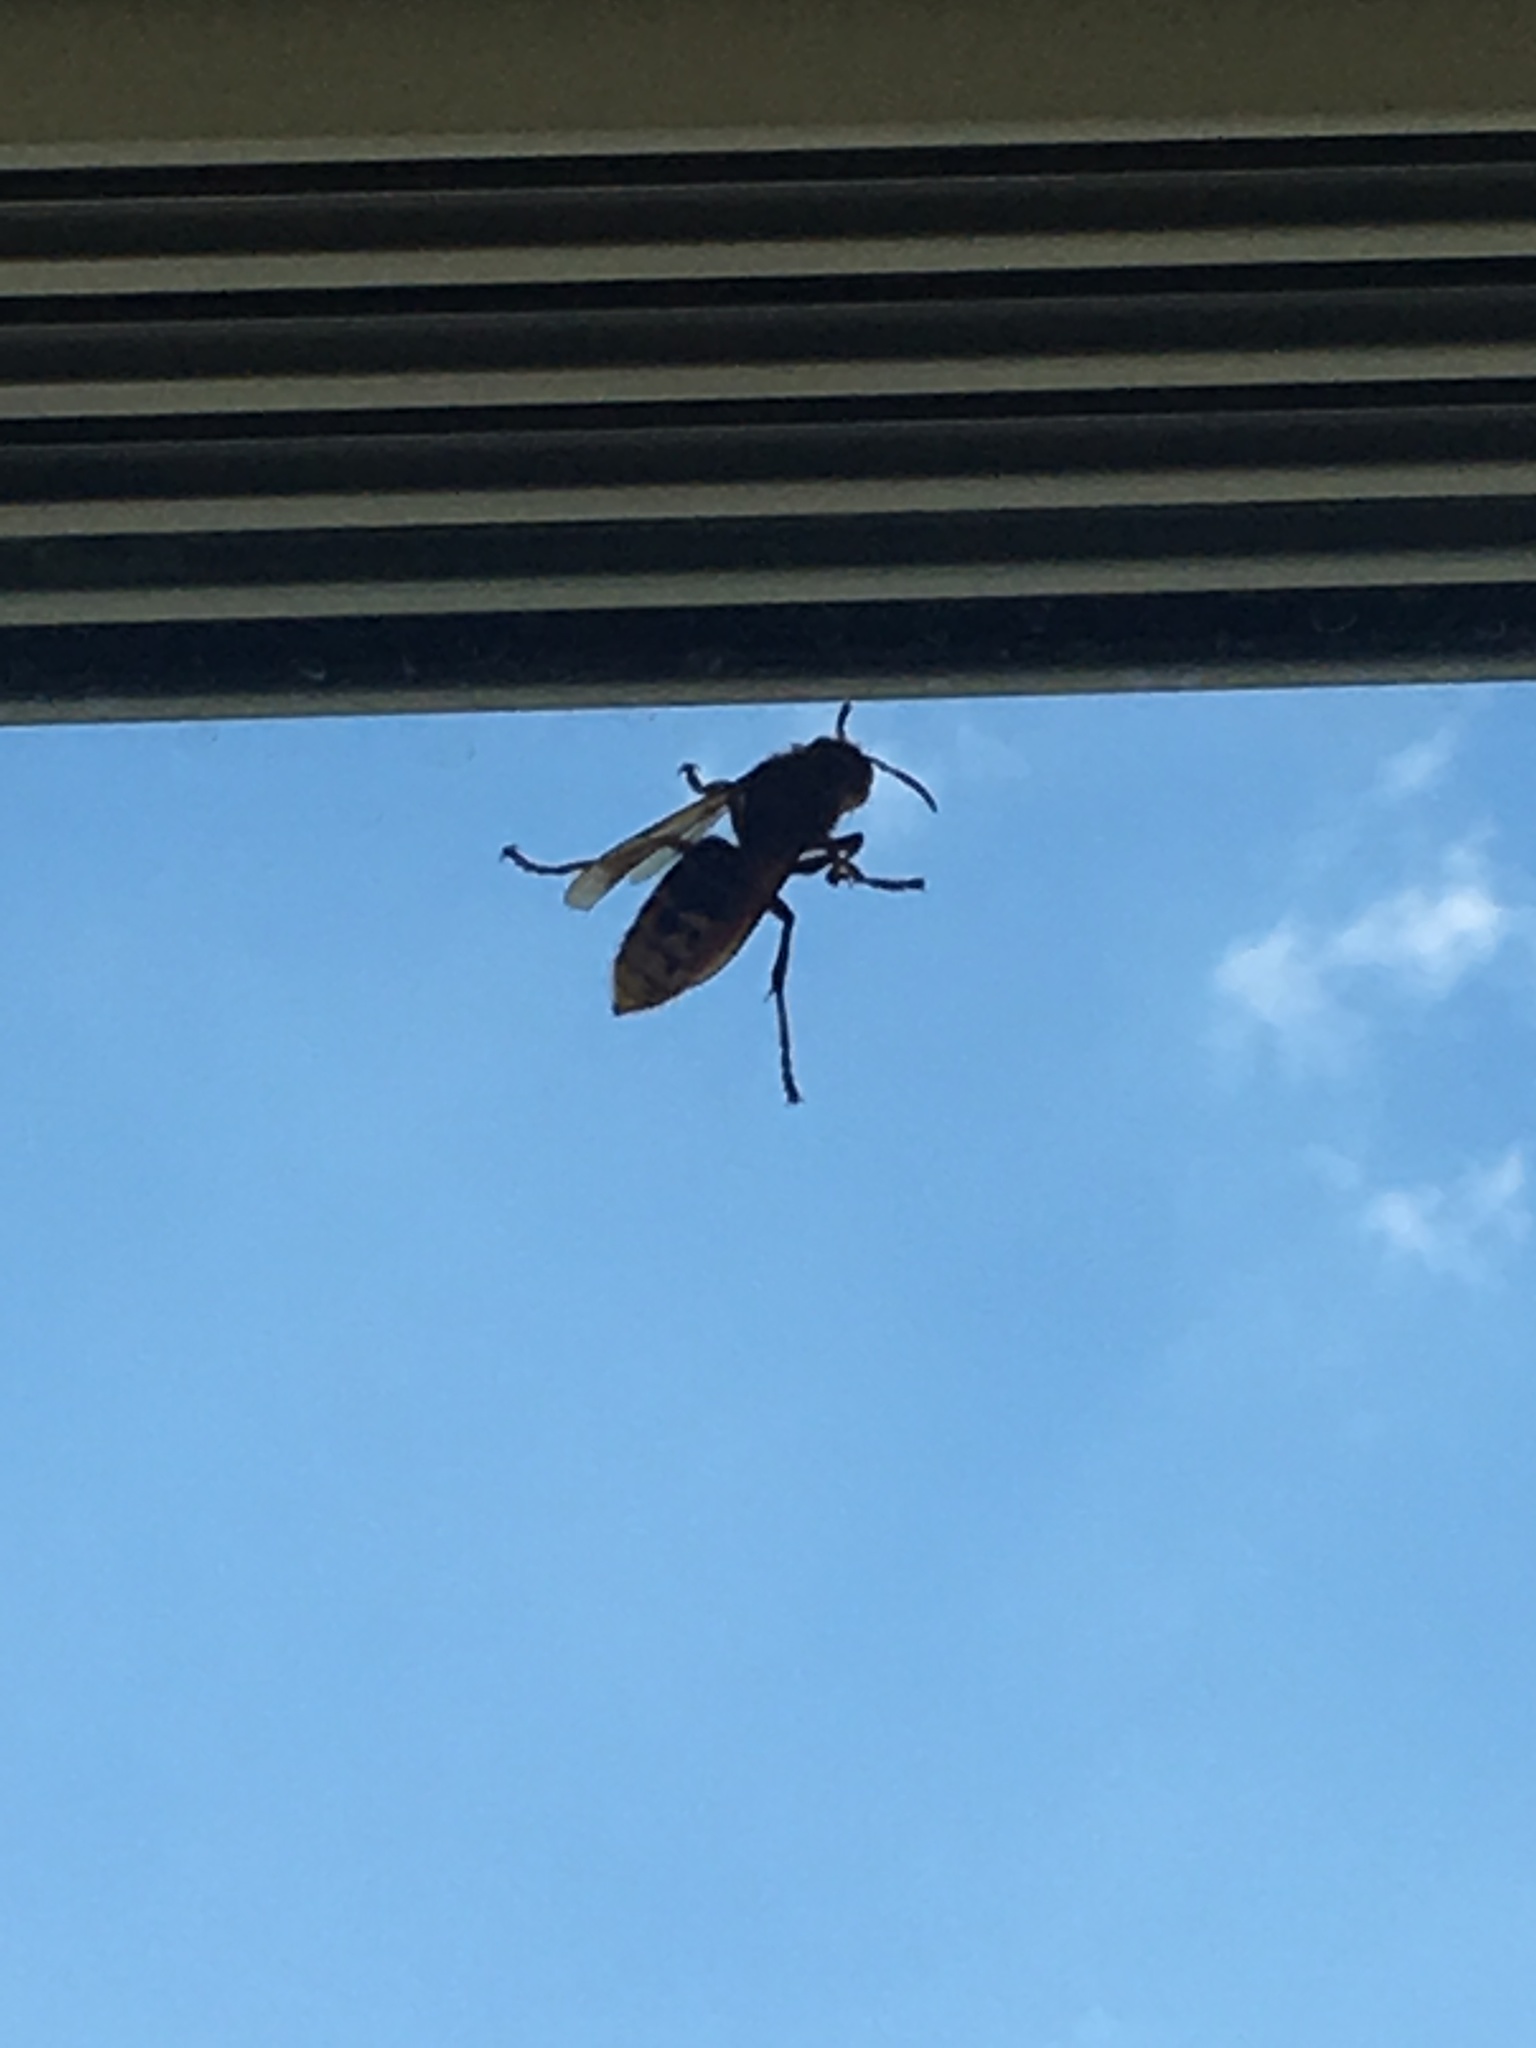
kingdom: Animalia
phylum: Arthropoda
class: Insecta
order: Hymenoptera
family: Vespidae
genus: Vespa
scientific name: Vespa crabro
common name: Hornet
